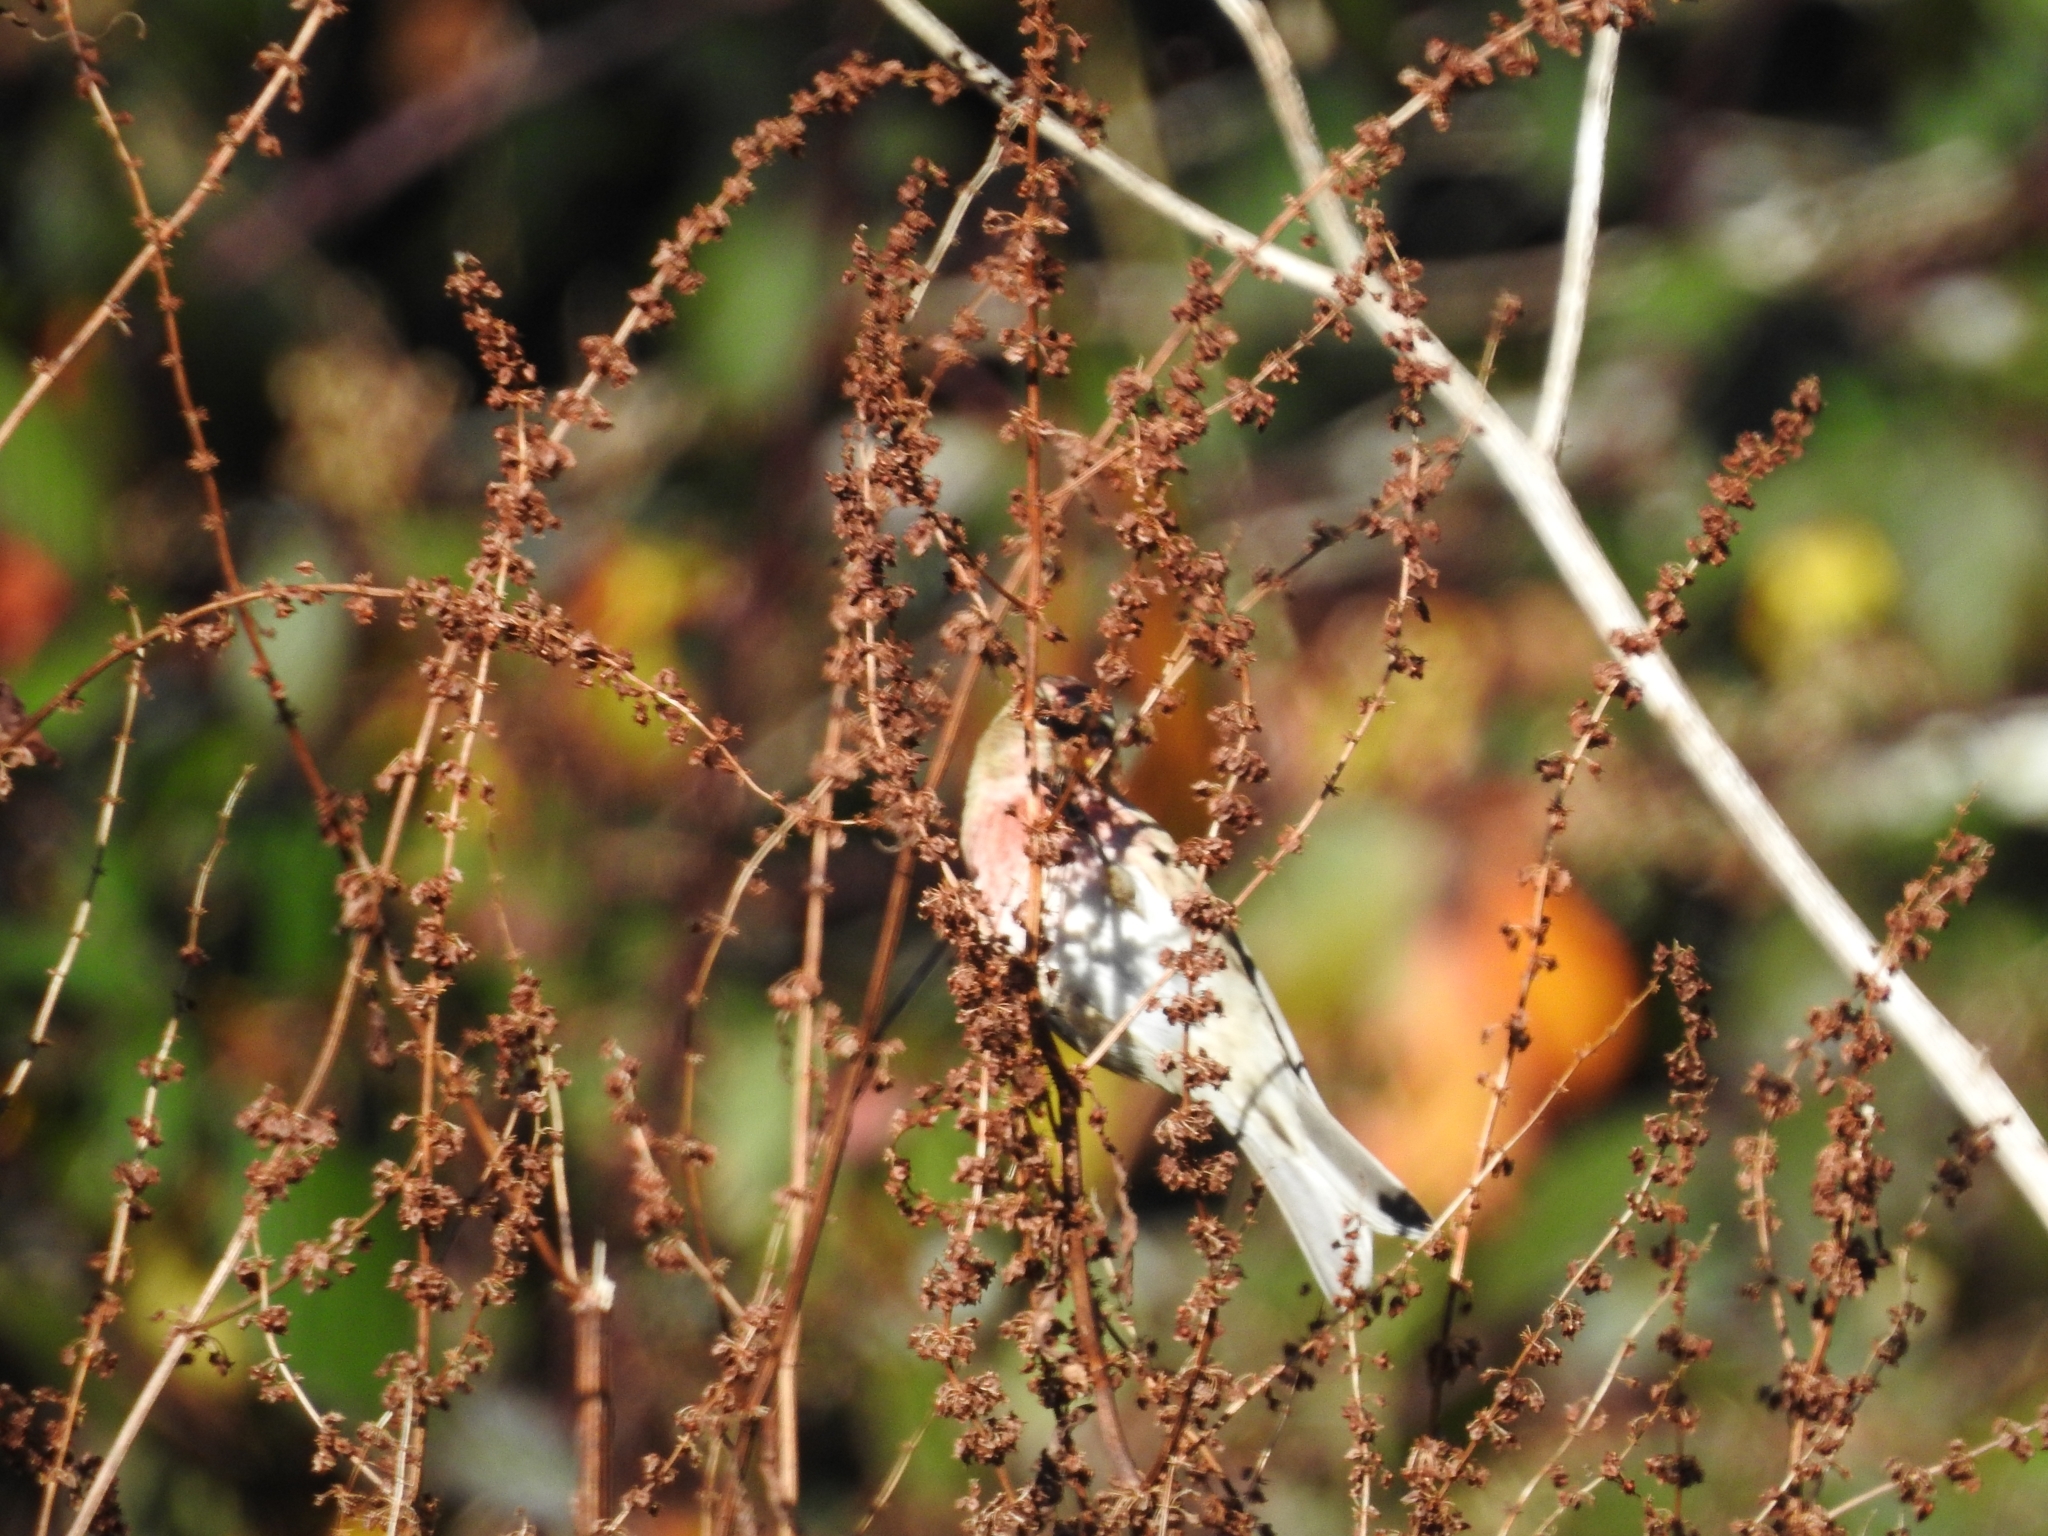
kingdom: Animalia
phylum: Chordata
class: Aves
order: Passeriformes
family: Fringillidae
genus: Acanthis
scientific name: Acanthis flammea
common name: Common redpoll
